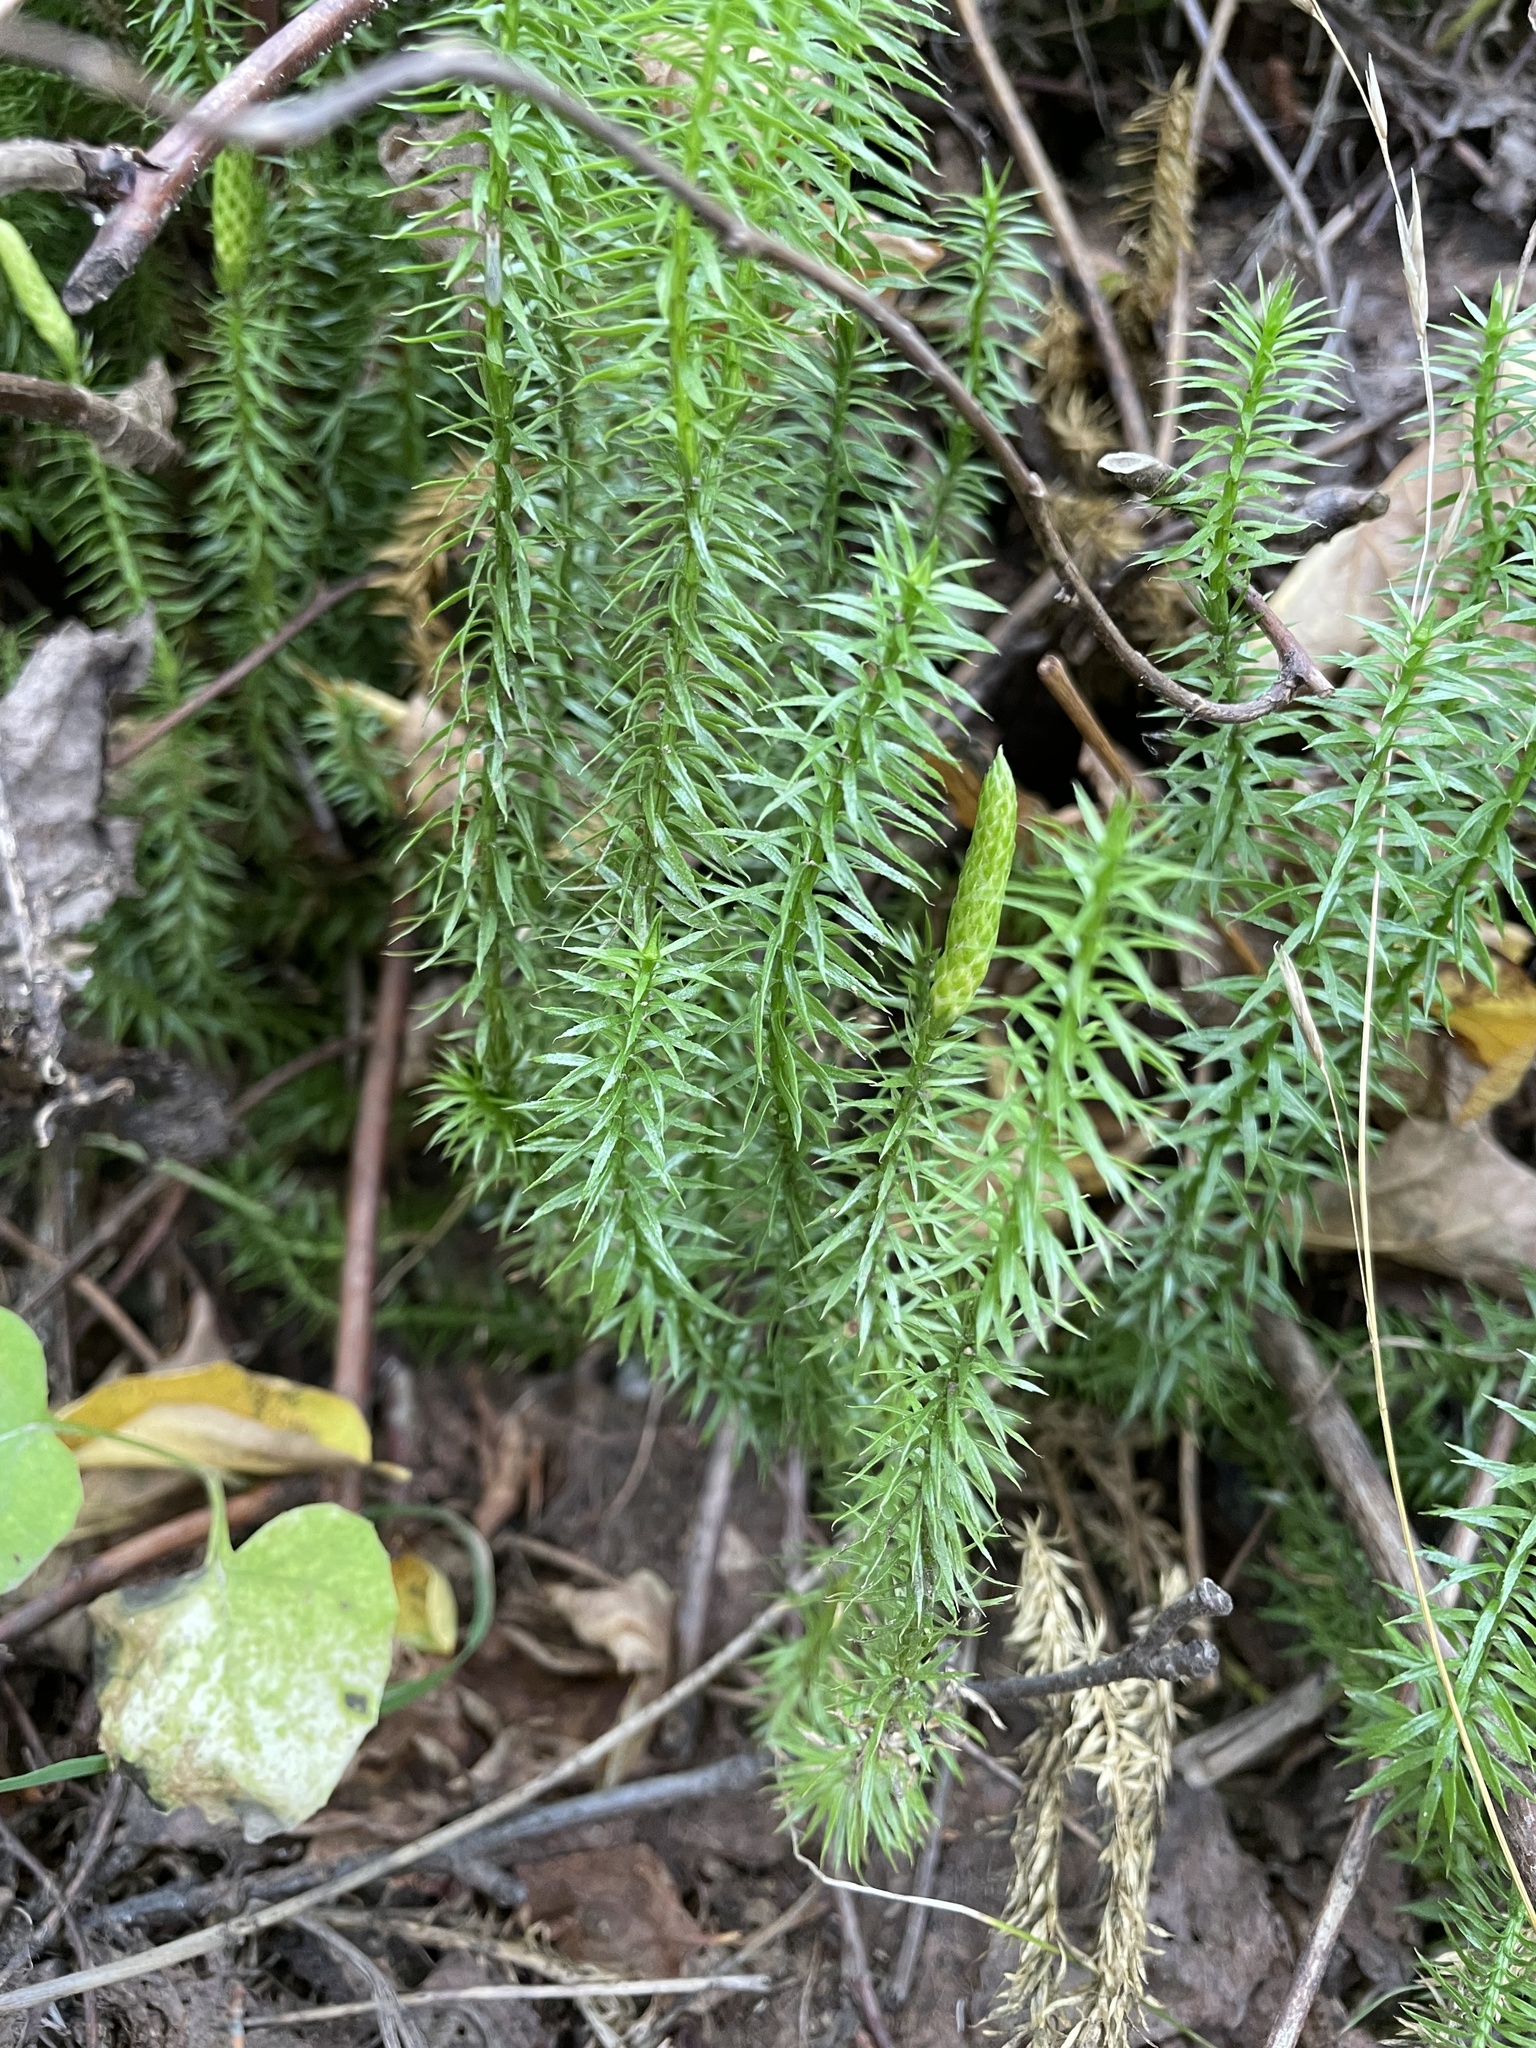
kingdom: Plantae
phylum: Tracheophyta
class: Lycopodiopsida
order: Lycopodiales
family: Lycopodiaceae
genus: Spinulum
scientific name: Spinulum annotinum
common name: Interrupted club-moss
